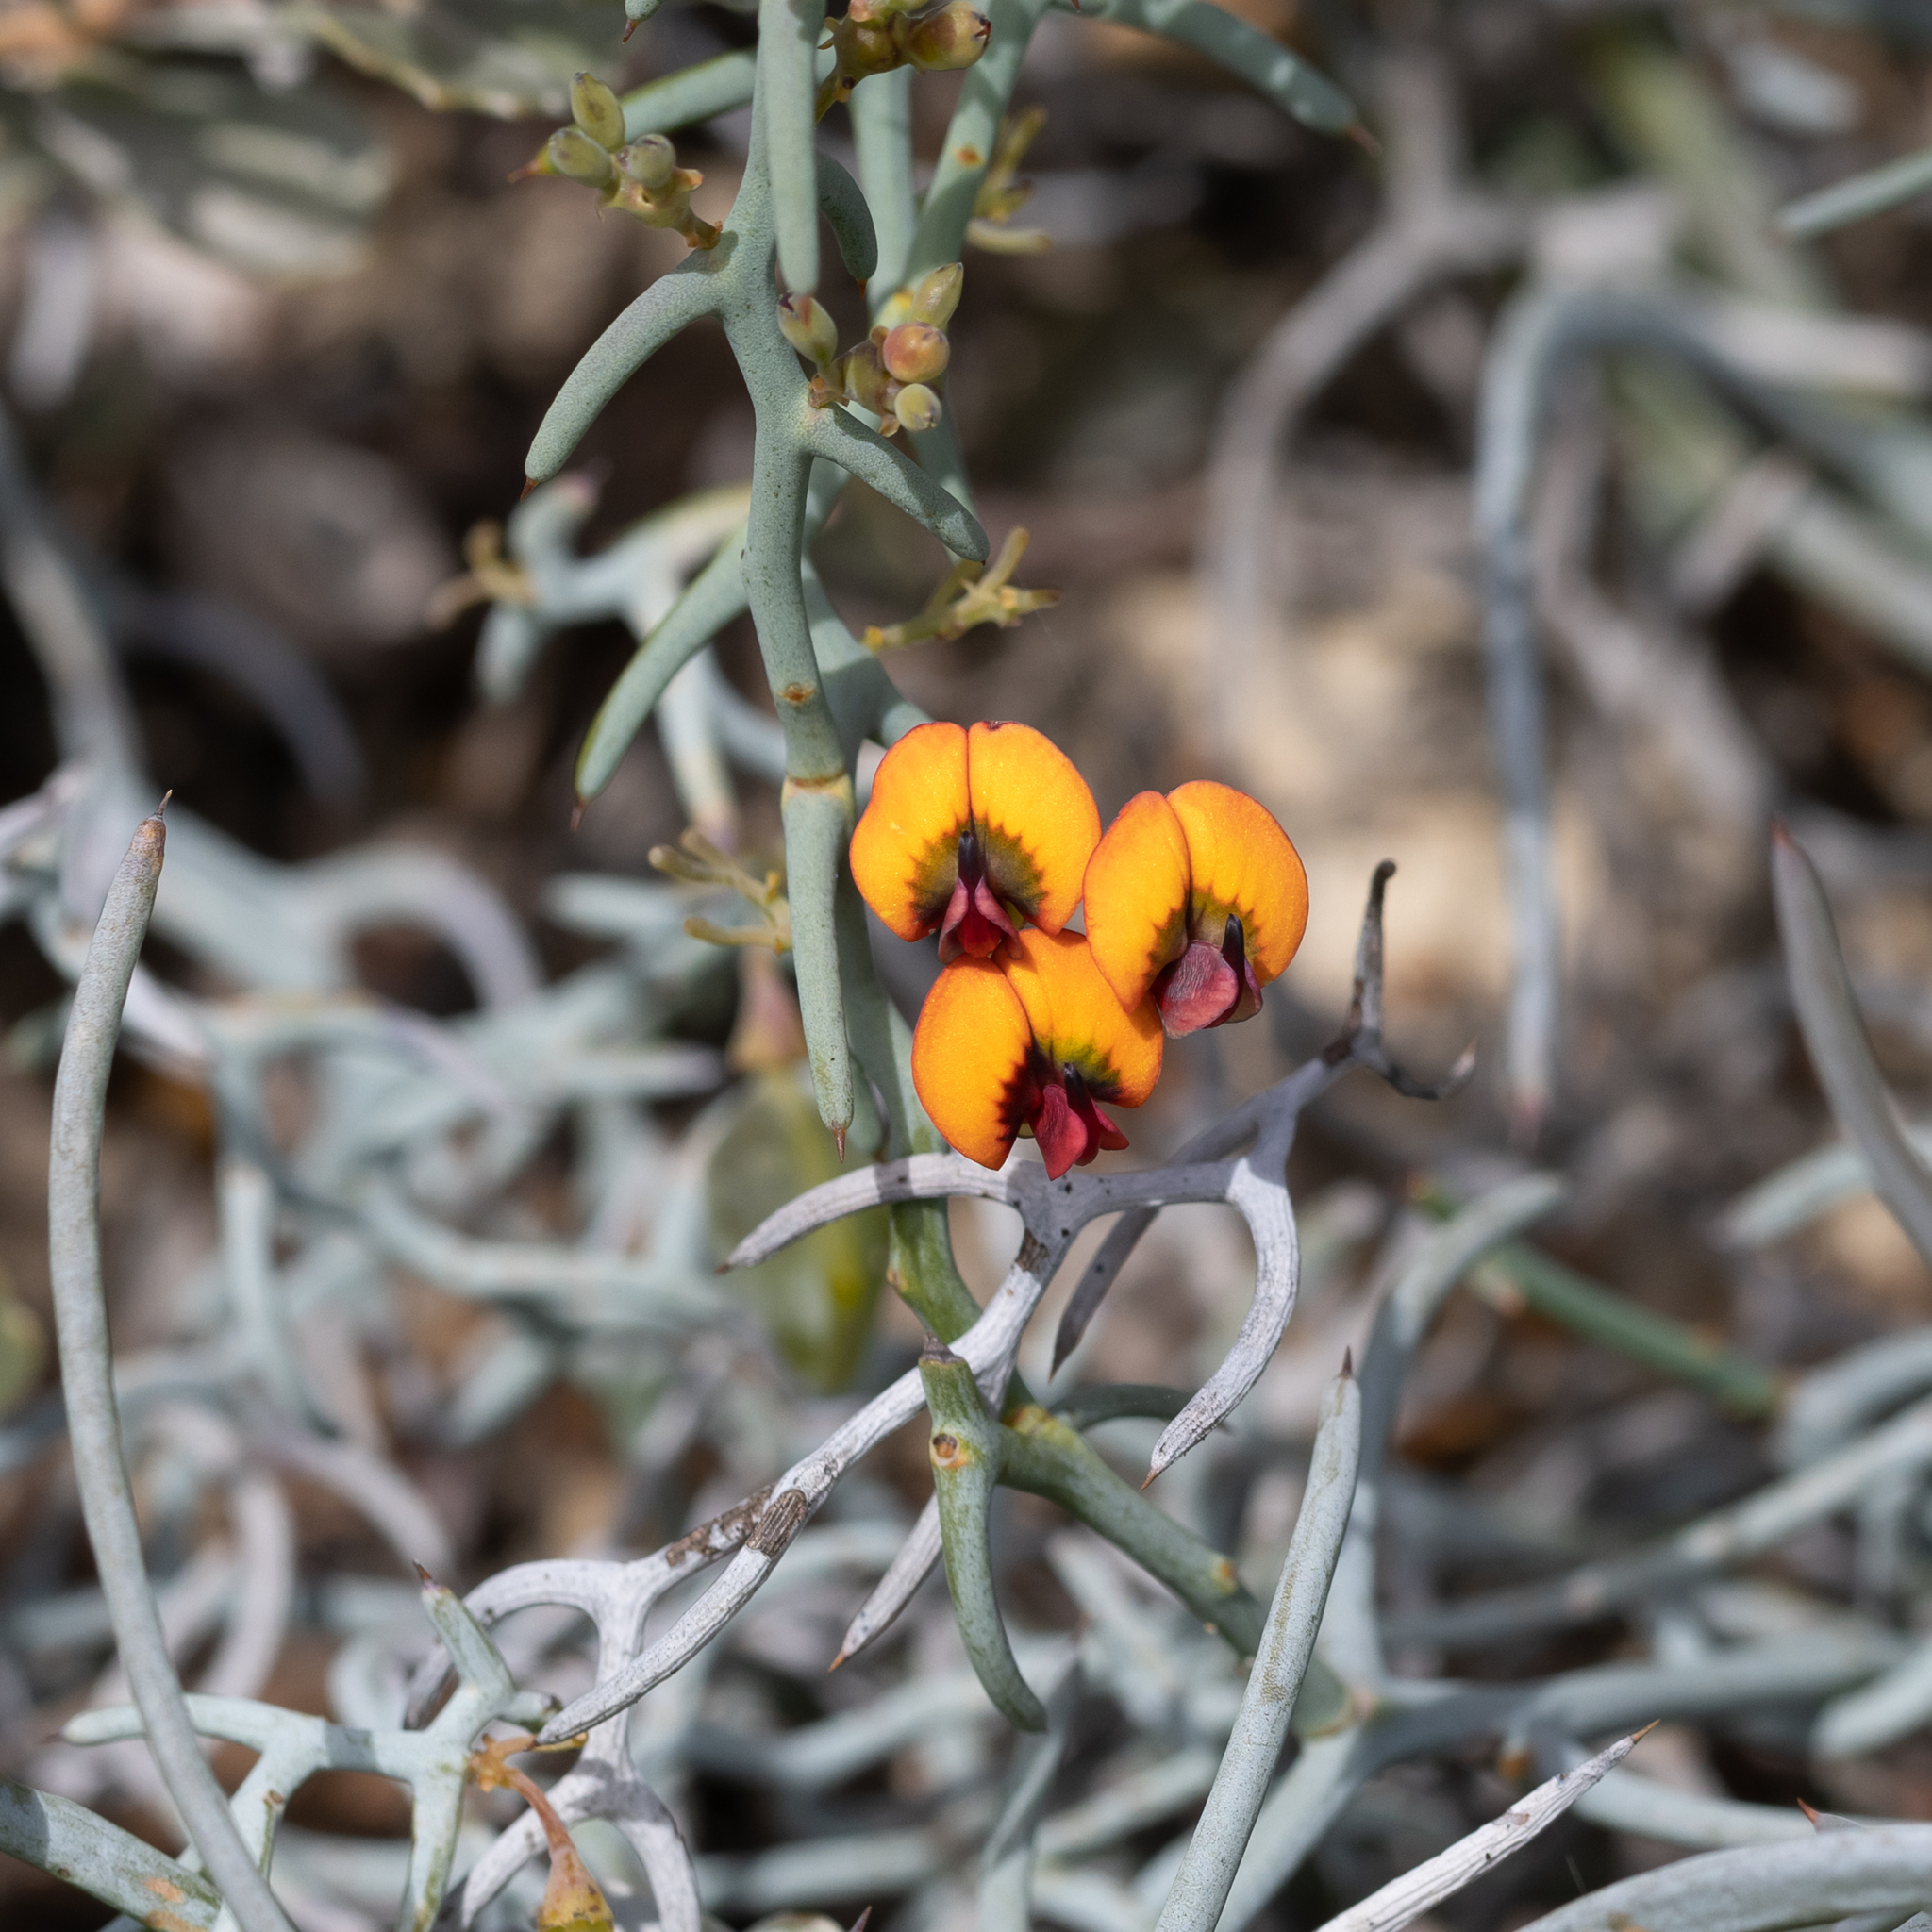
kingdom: Plantae
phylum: Tracheophyta
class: Magnoliopsida
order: Fabales
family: Fabaceae
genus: Daviesia
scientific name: Daviesia incrassata
